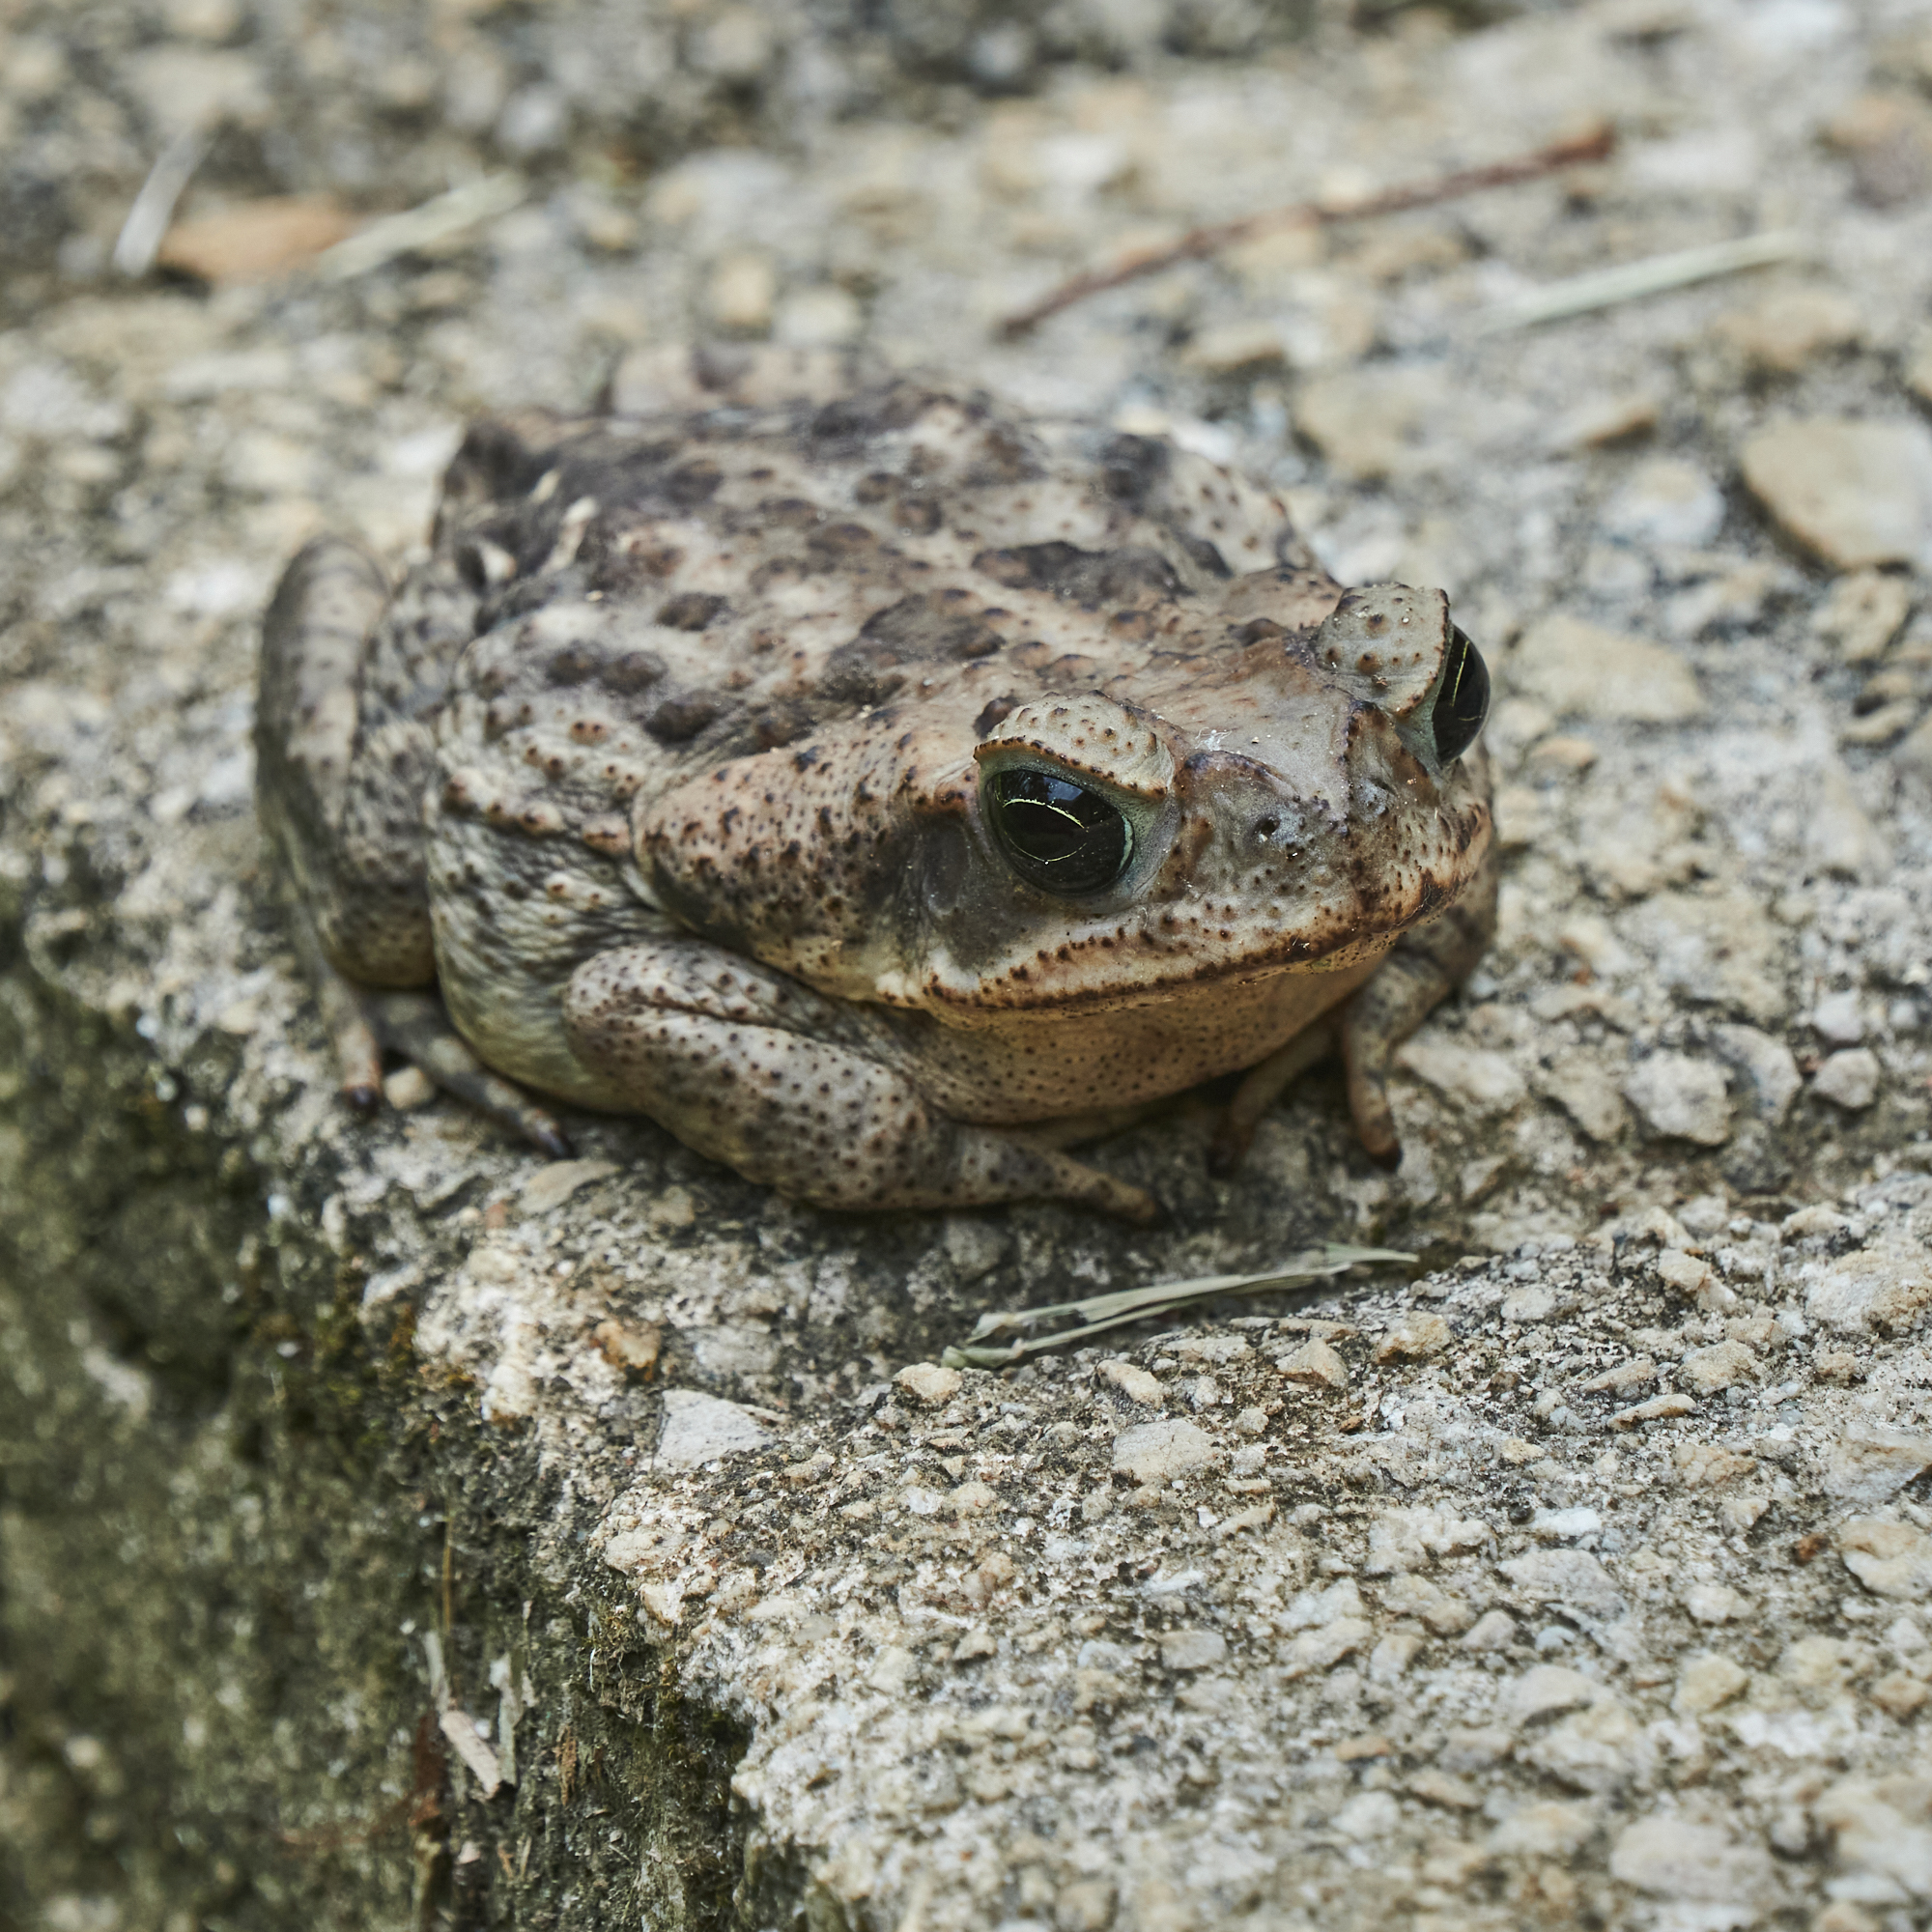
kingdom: Animalia
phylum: Chordata
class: Amphibia
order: Anura
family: Bufonidae
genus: Rhinella
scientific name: Rhinella horribilis
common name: Mesoamerican cane toad
